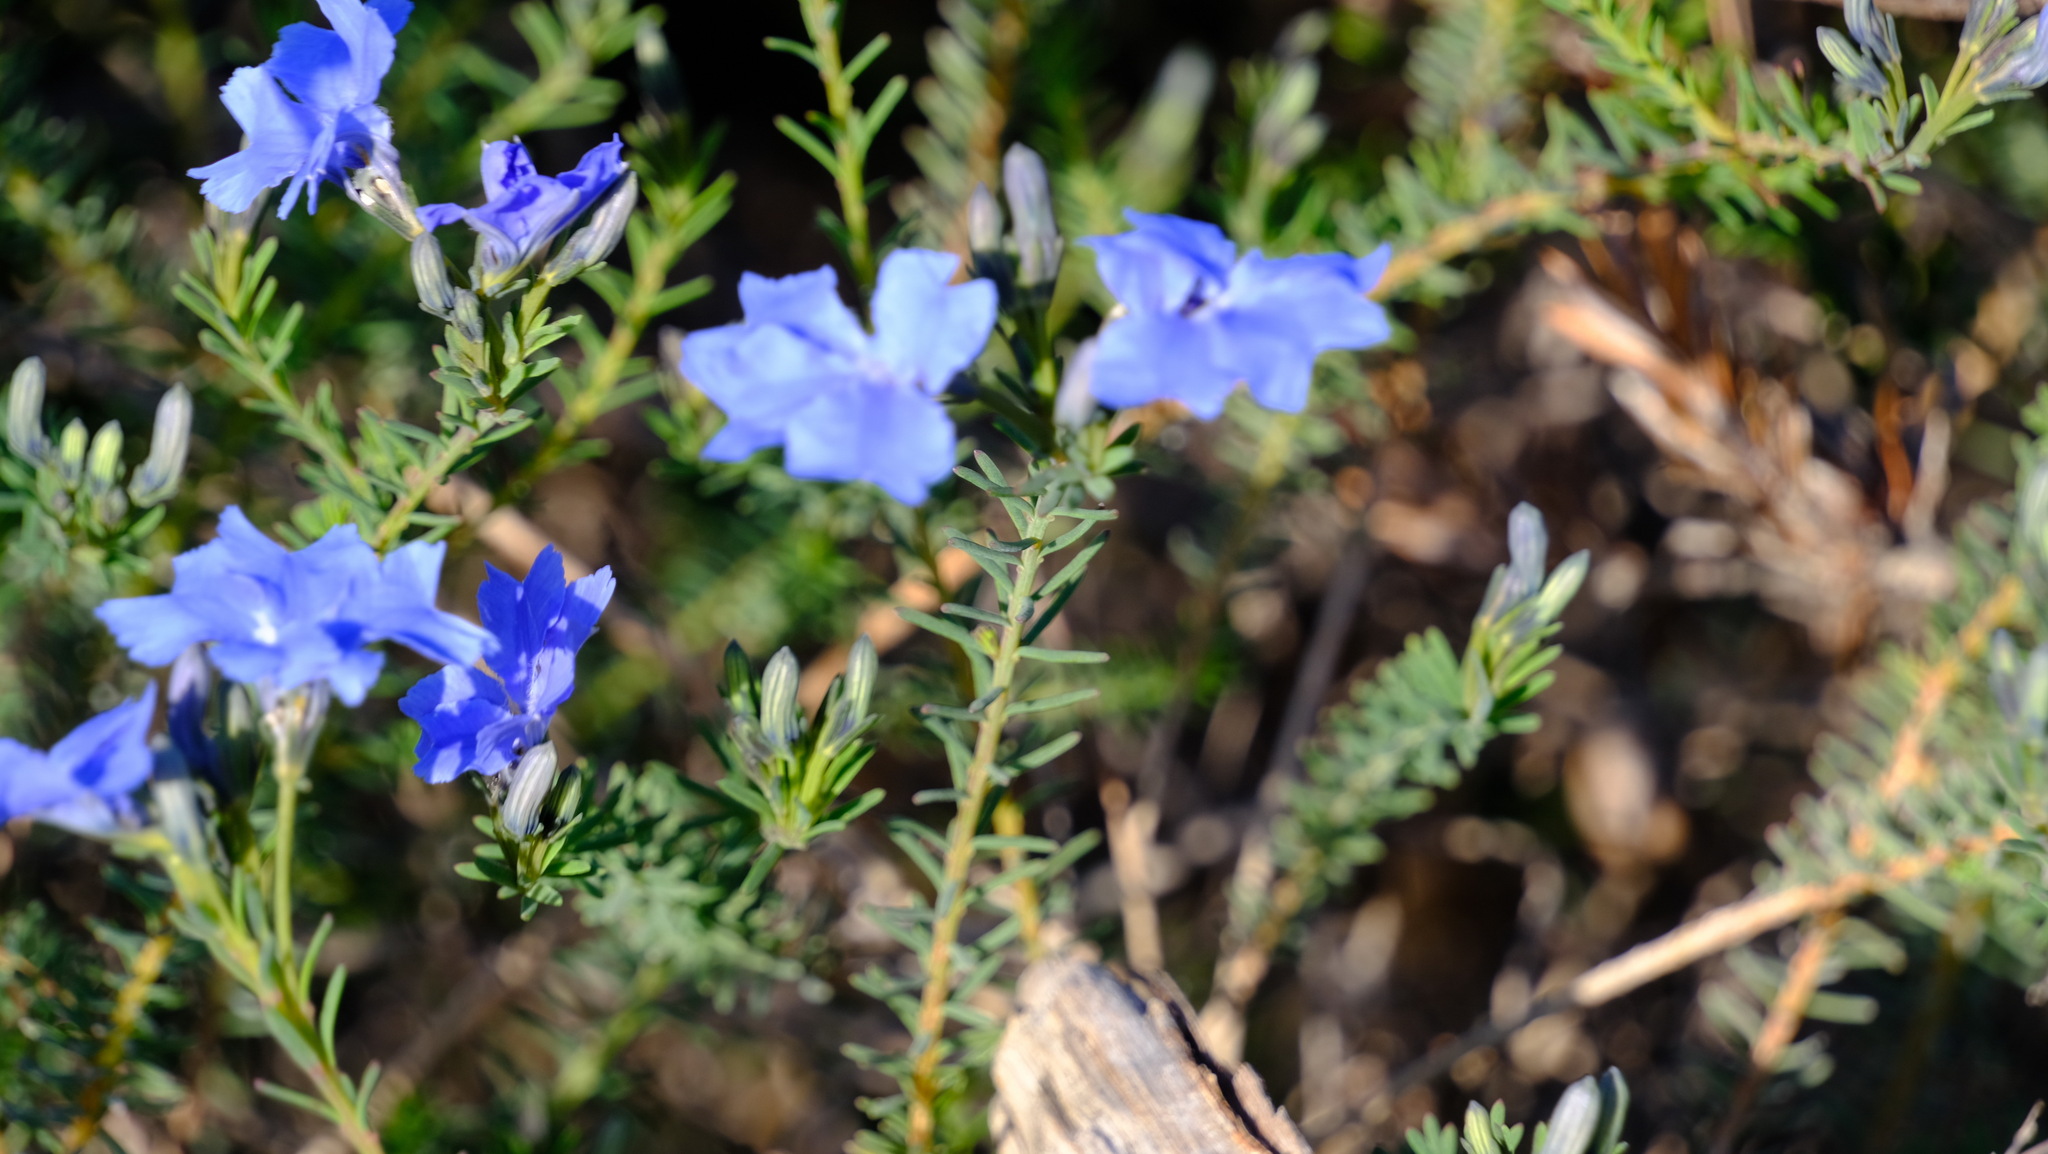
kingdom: Plantae
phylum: Tracheophyta
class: Magnoliopsida
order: Asterales
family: Goodeniaceae
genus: Lechenaultia
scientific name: Lechenaultia biloba
